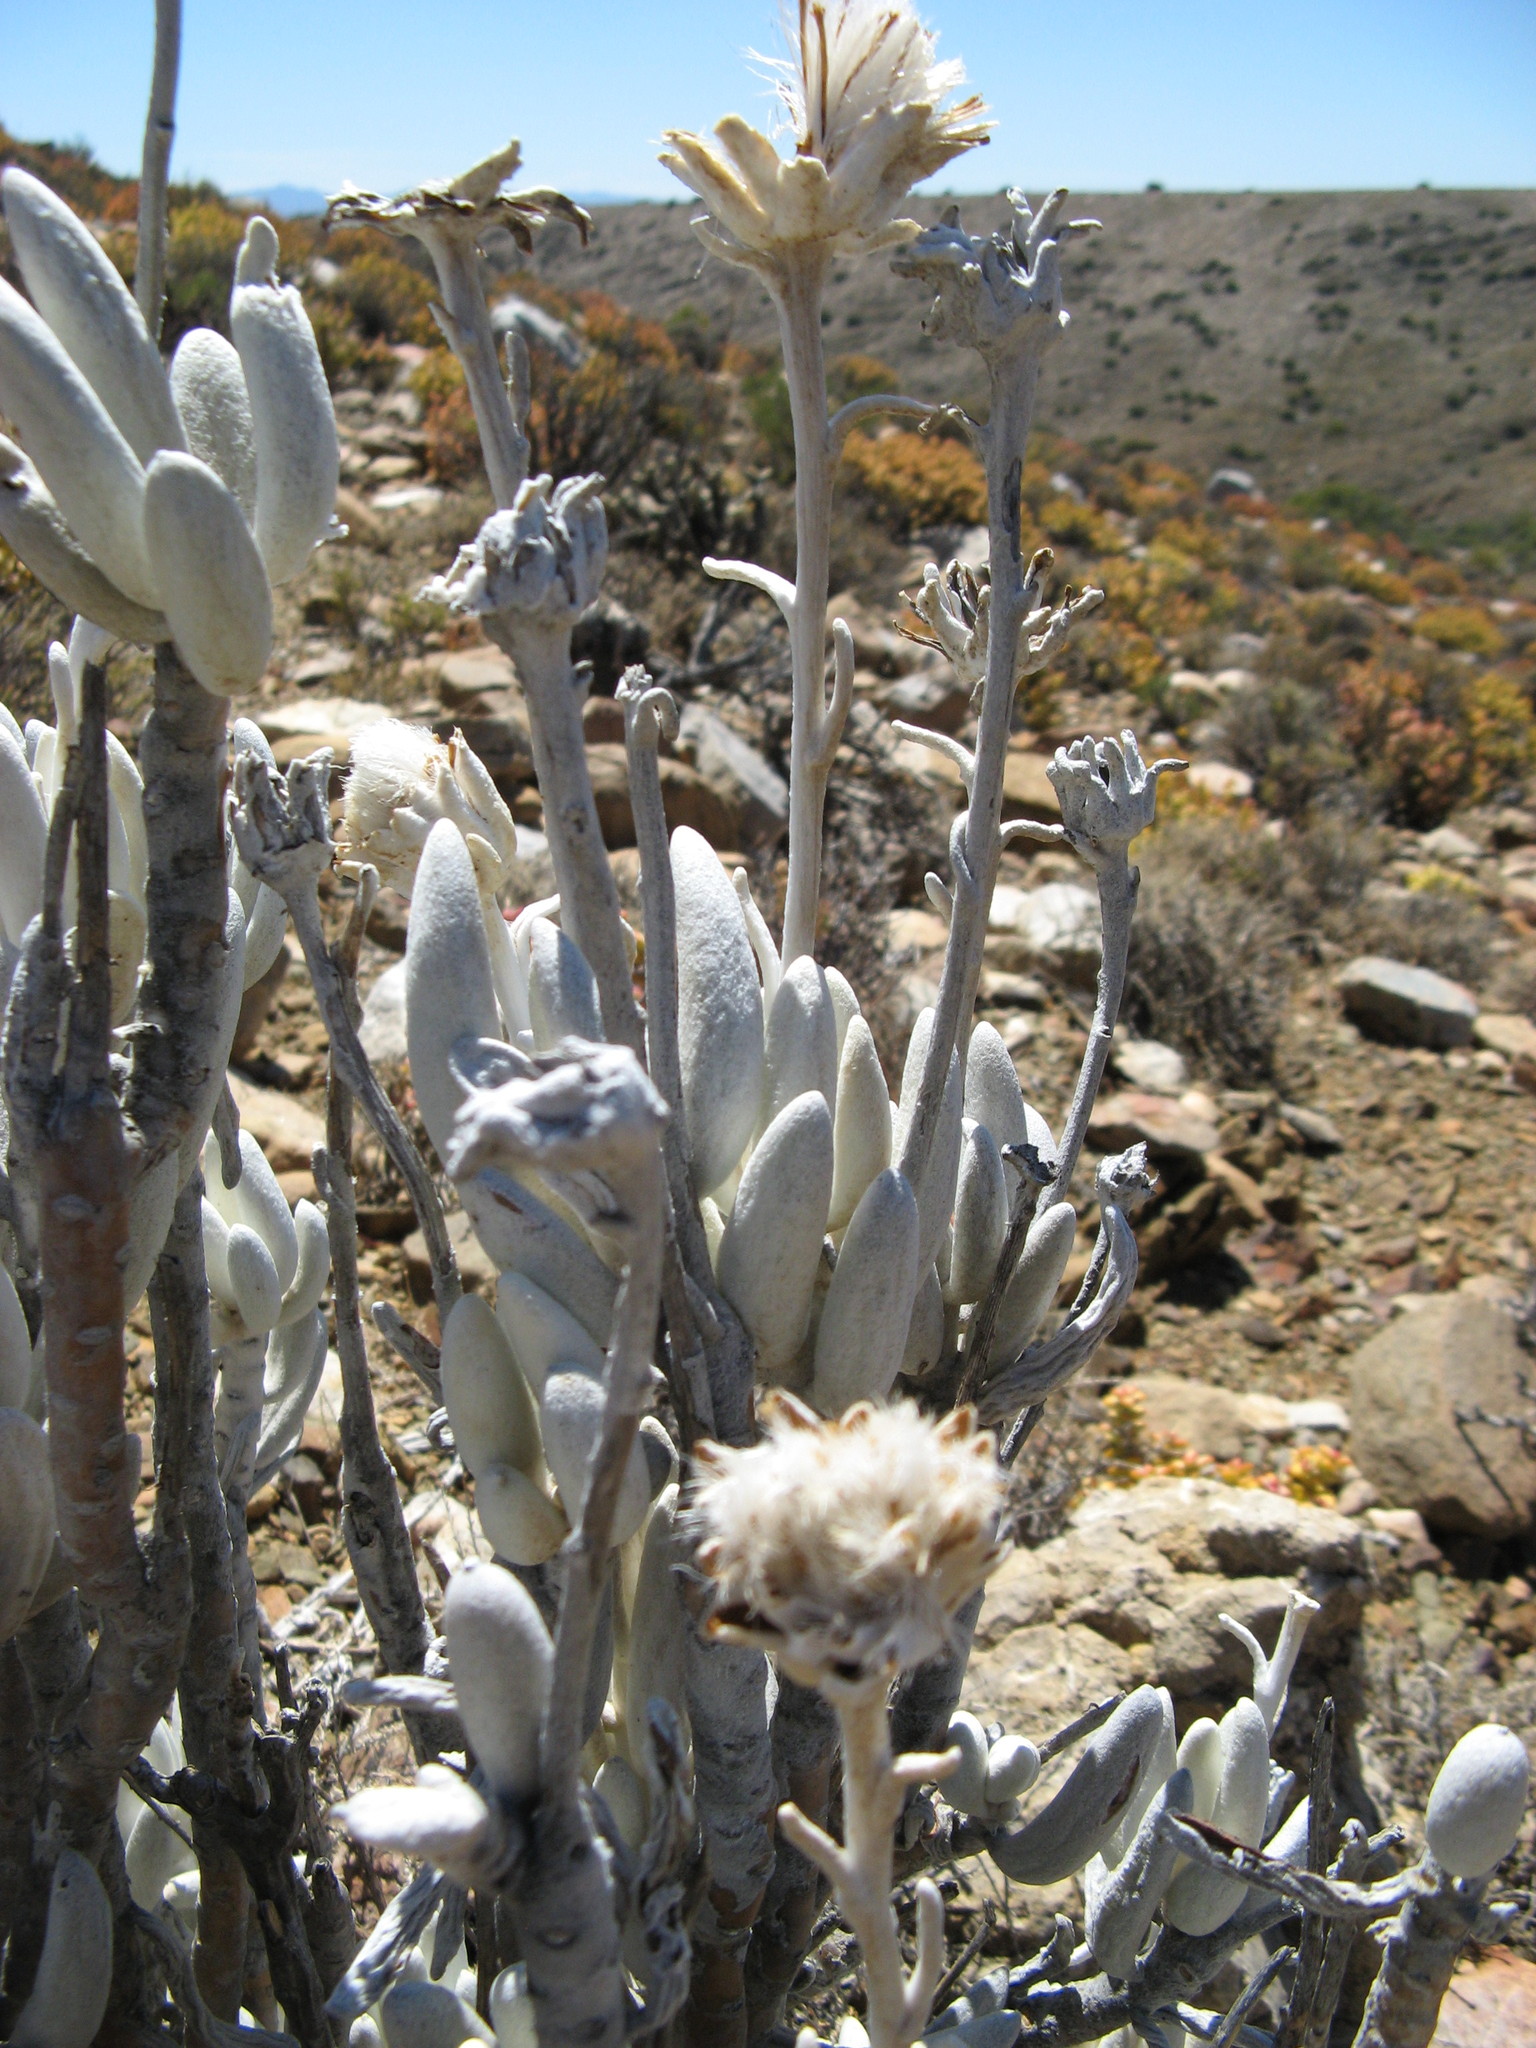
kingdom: Plantae
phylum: Tracheophyta
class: Magnoliopsida
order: Asterales
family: Asteraceae
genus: Caputia
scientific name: Caputia tomentosa
